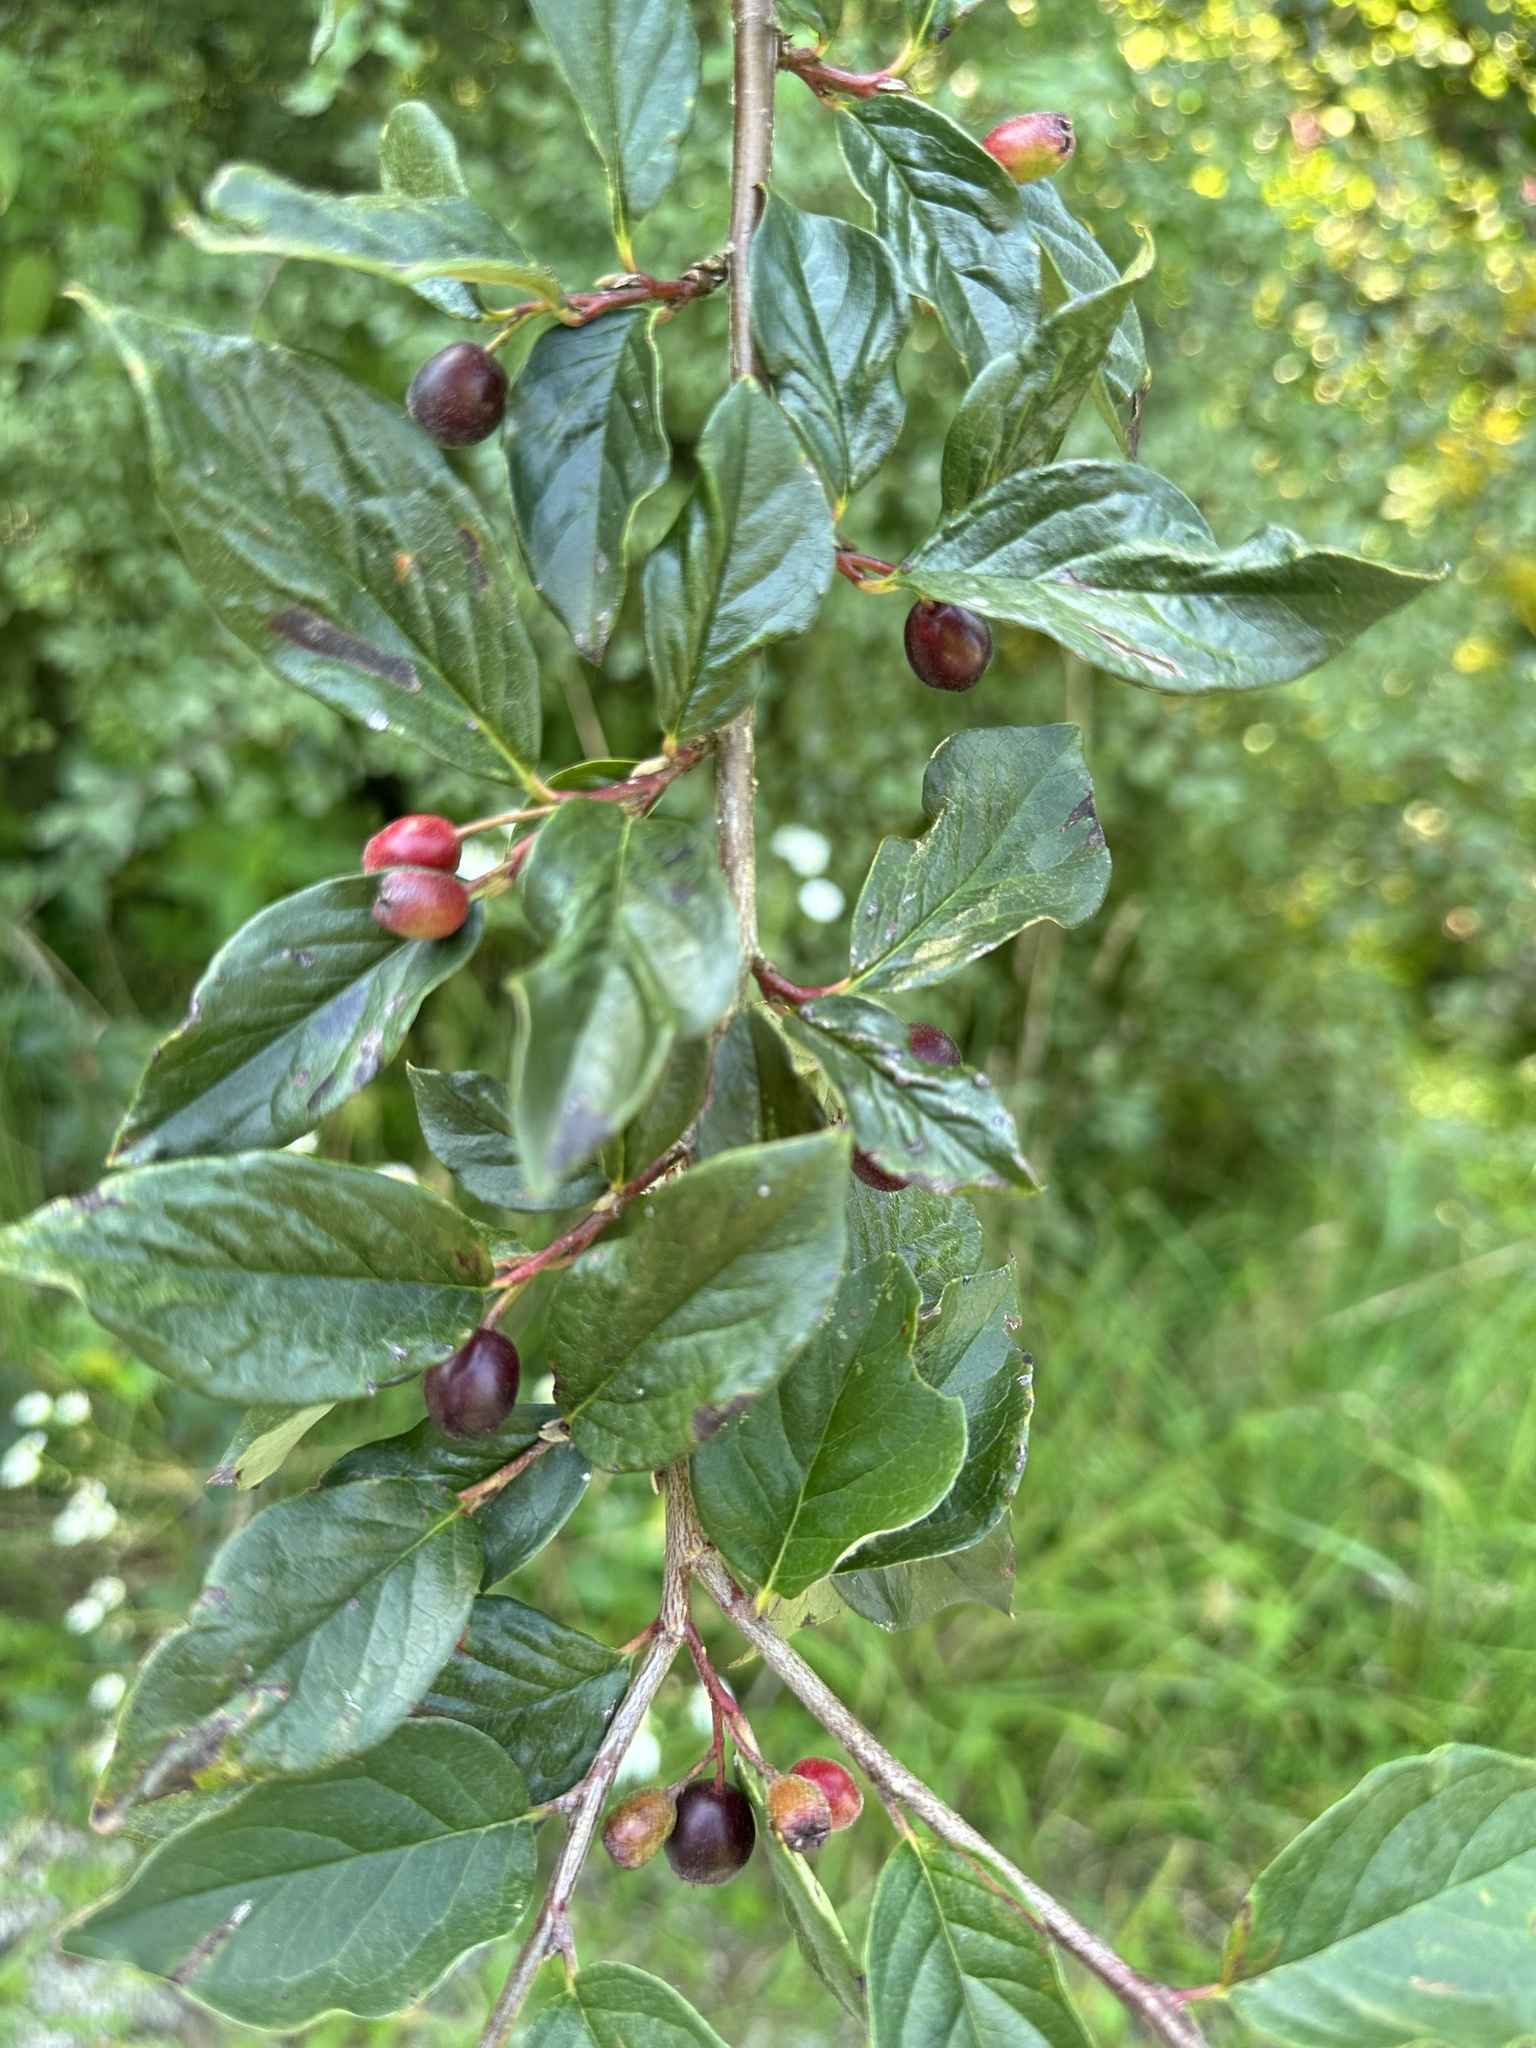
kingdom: Plantae
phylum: Tracheophyta
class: Magnoliopsida
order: Rosales
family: Rosaceae
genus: Cotoneaster
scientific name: Cotoneaster acutifolius
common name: Peking cotoneaster
